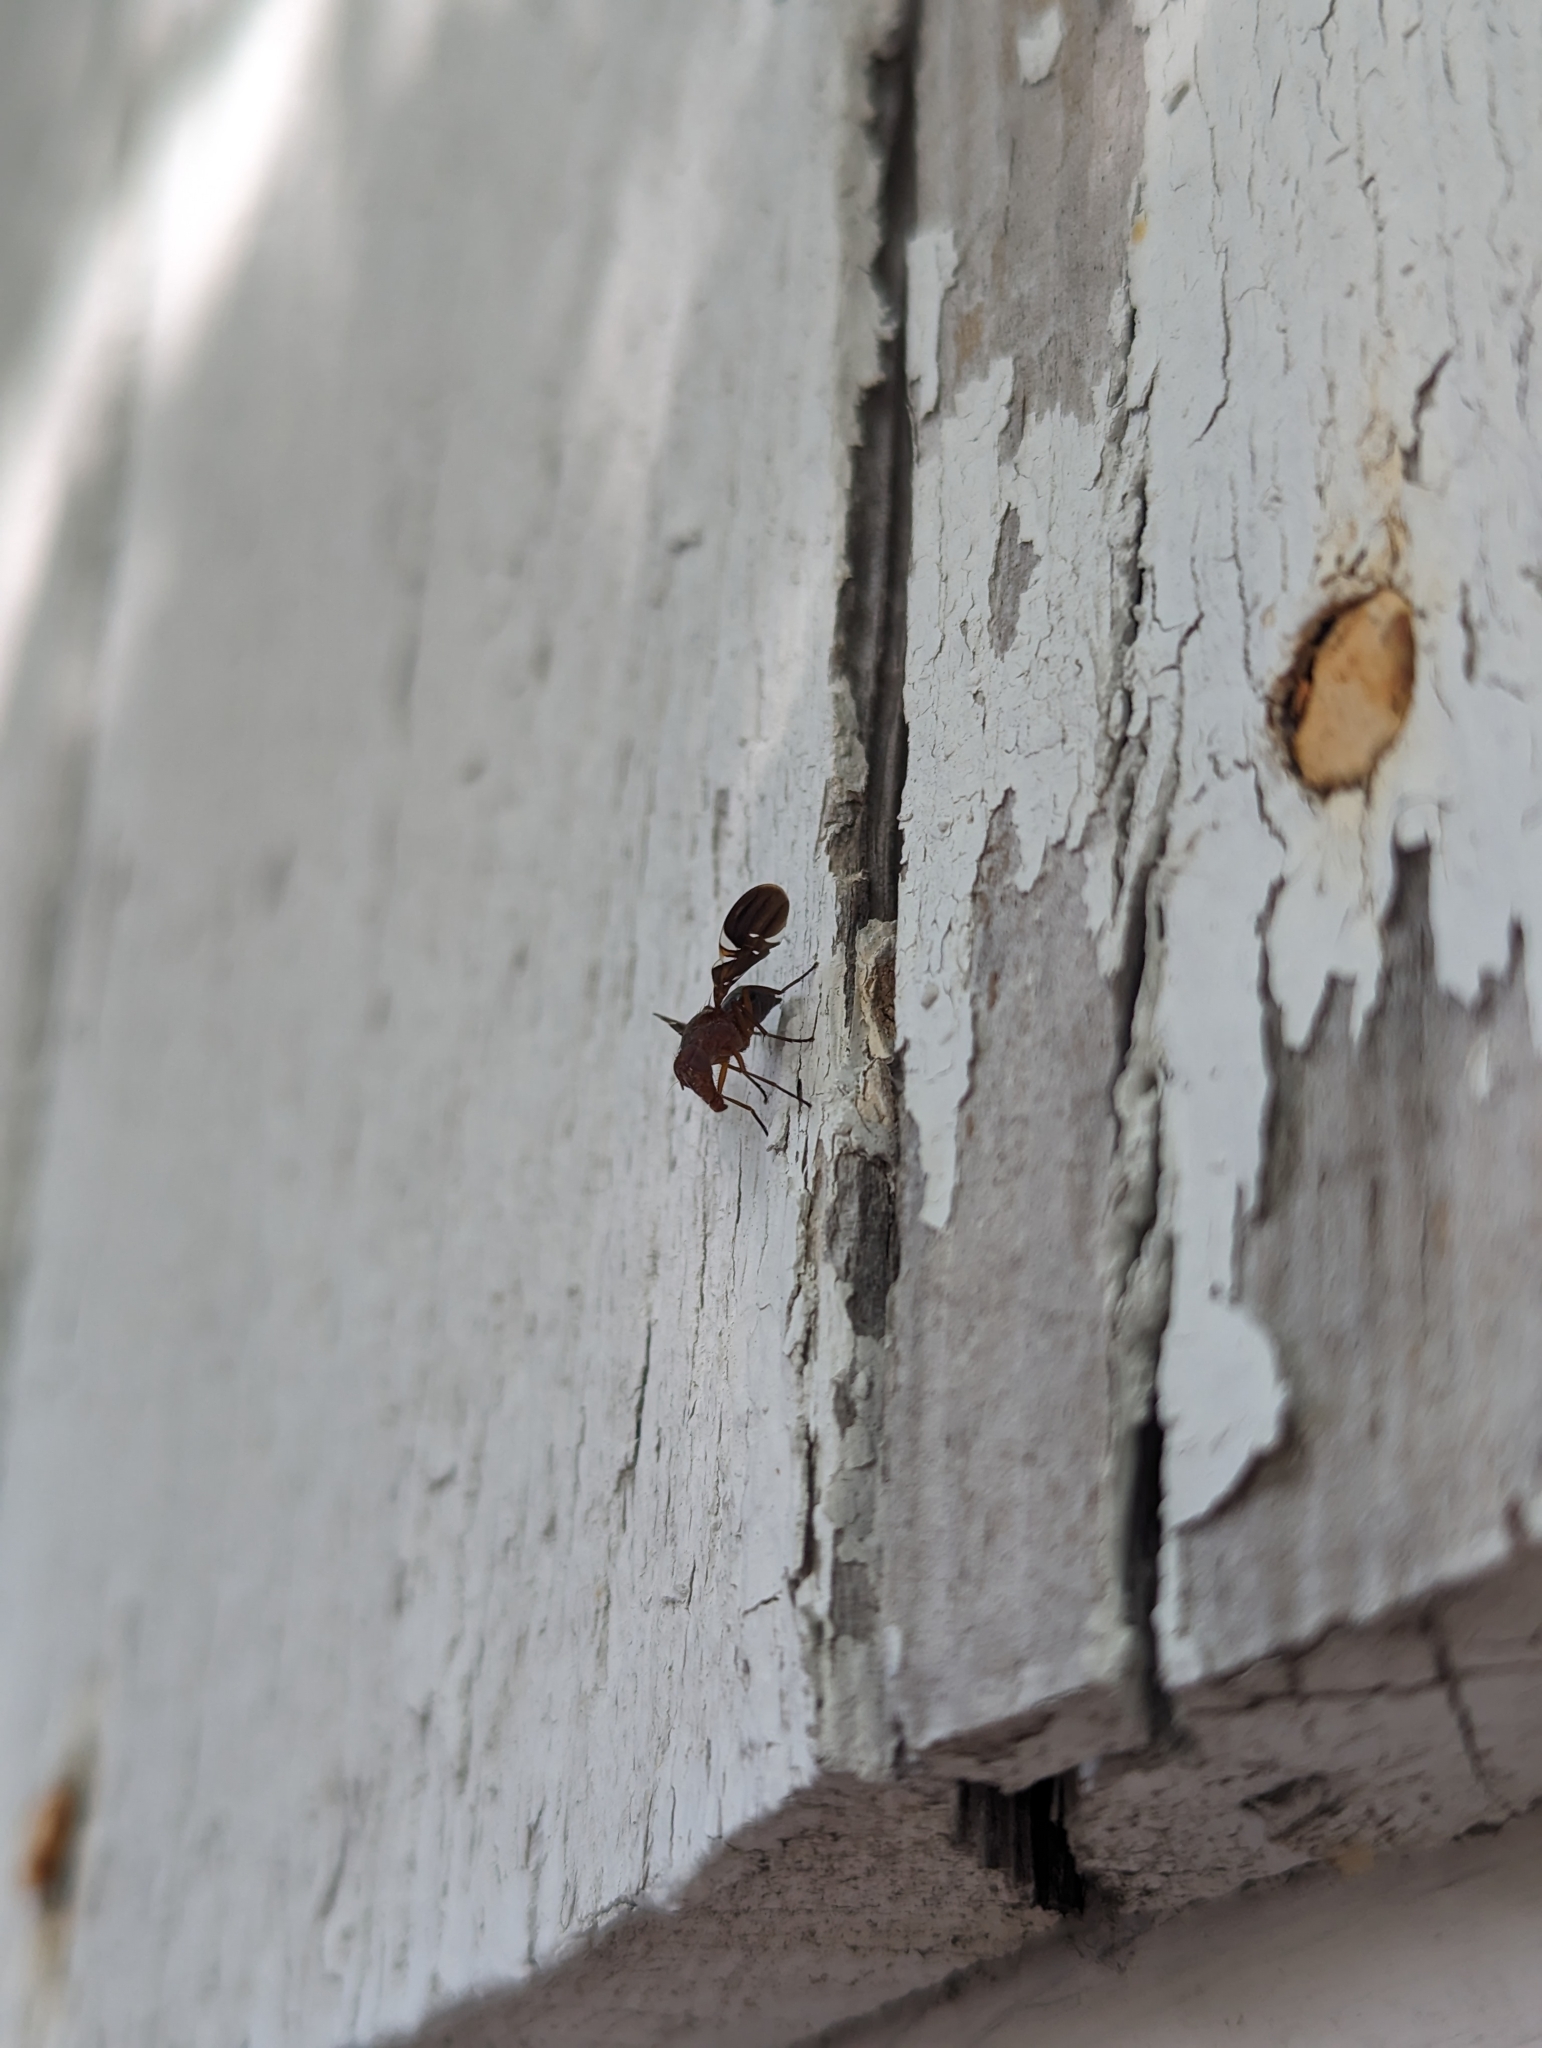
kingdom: Animalia
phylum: Arthropoda
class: Insecta
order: Diptera
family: Ulidiidae
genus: Delphinia
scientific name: Delphinia picta
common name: Common picture-winged fly
